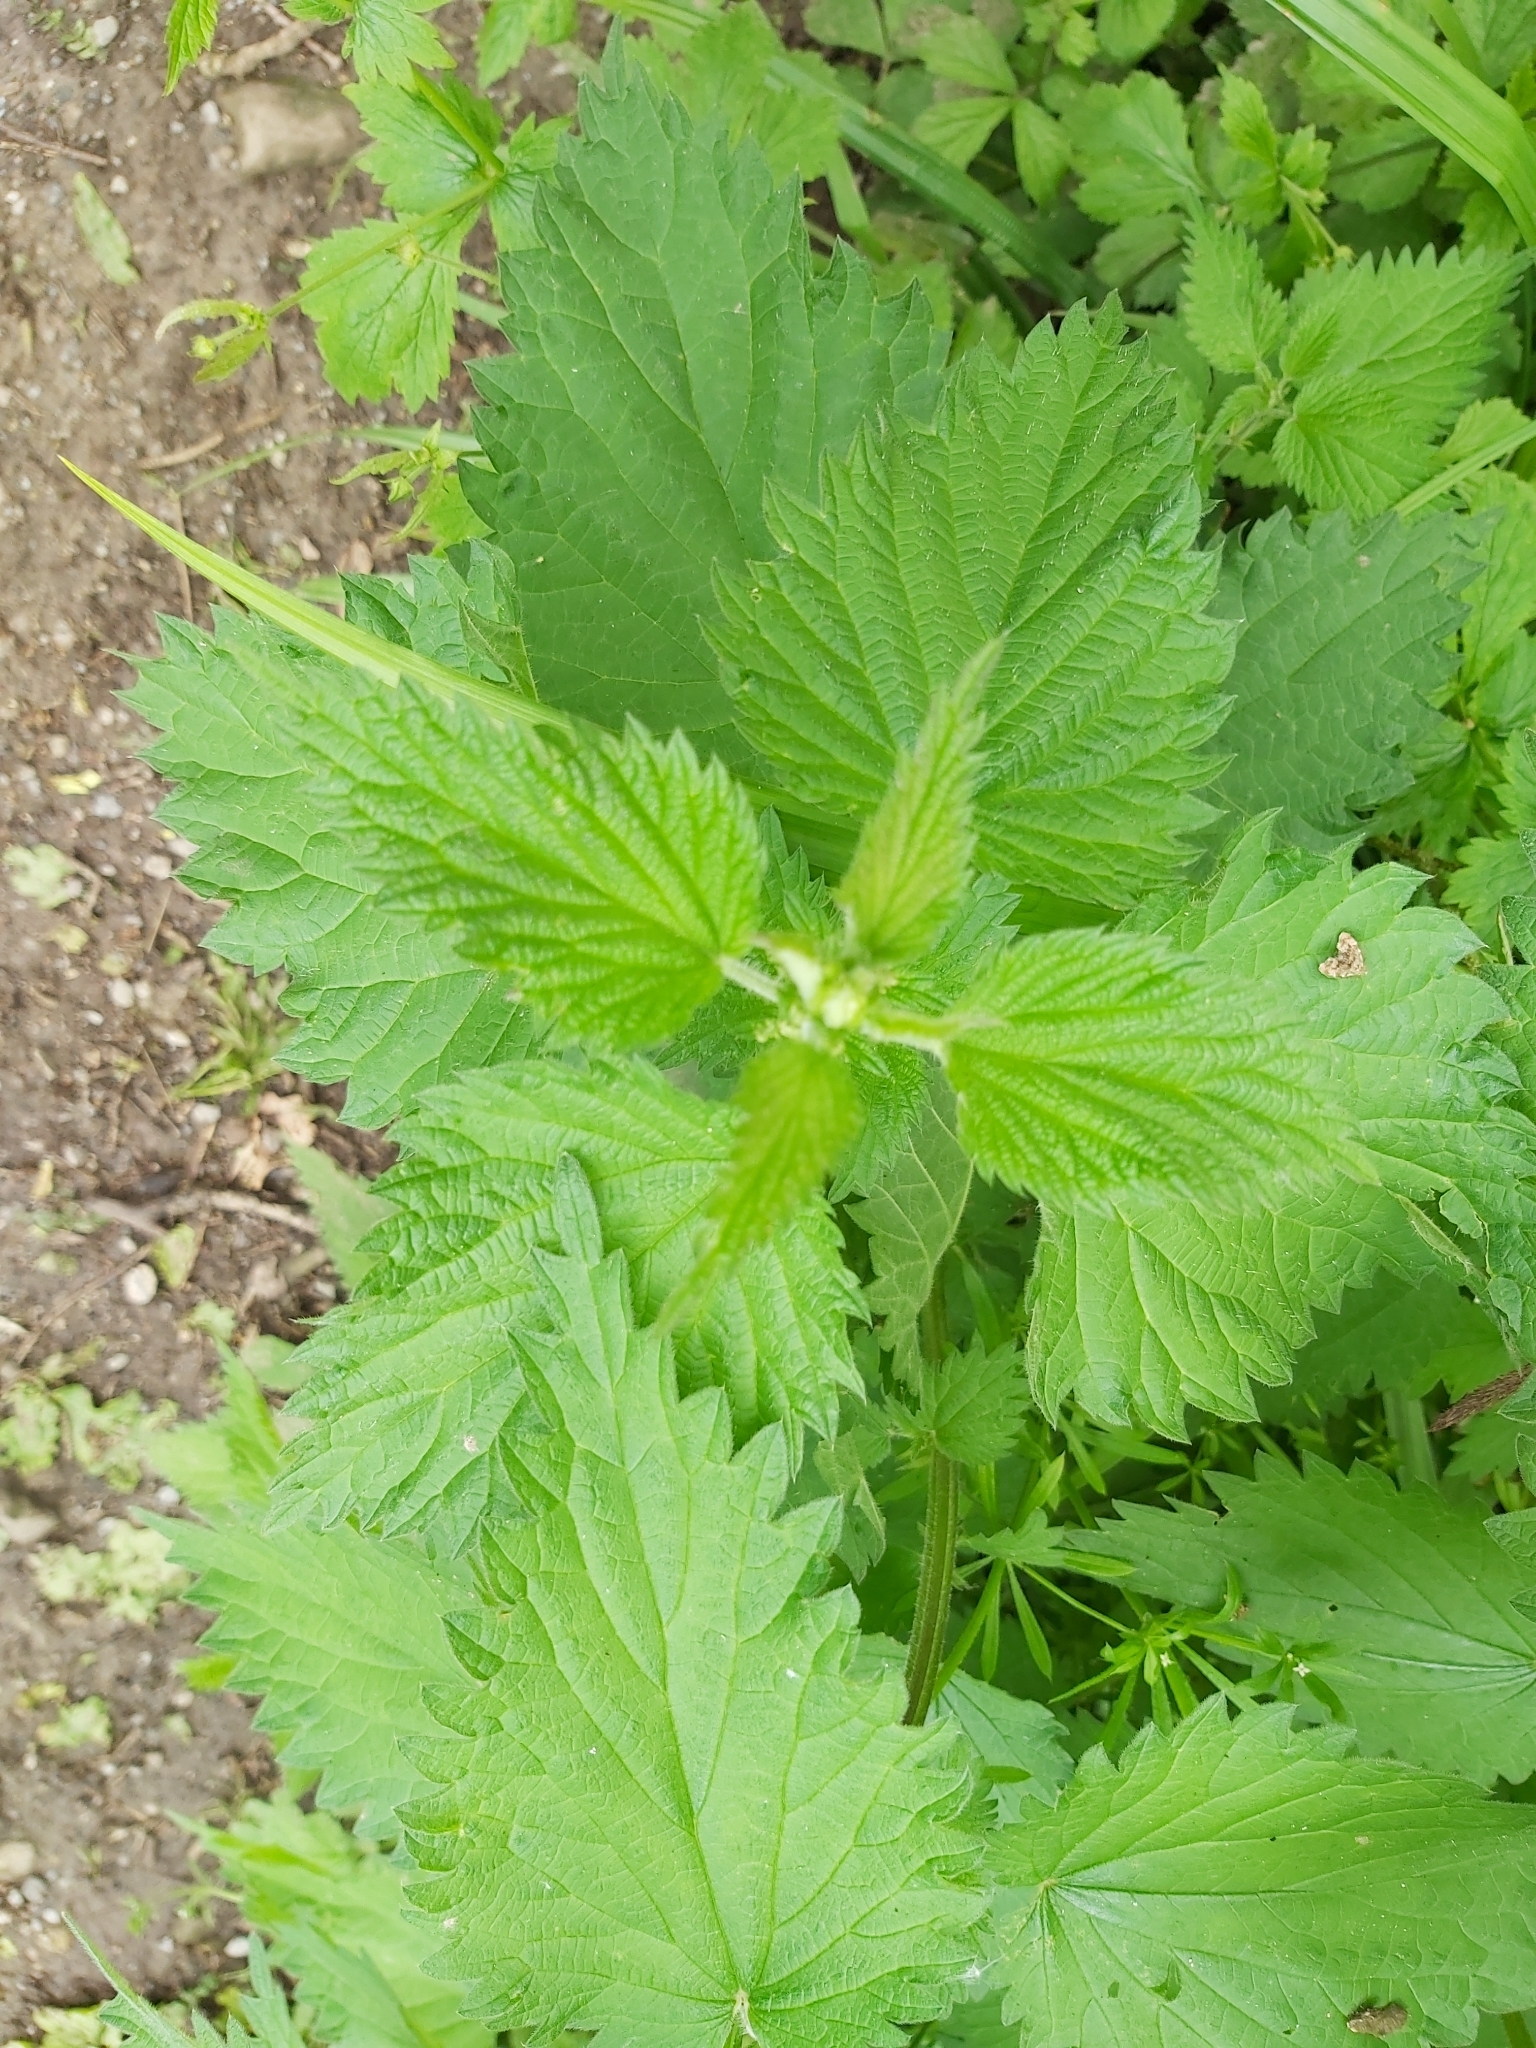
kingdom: Plantae
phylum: Tracheophyta
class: Magnoliopsida
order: Rosales
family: Urticaceae
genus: Urtica
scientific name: Urtica dioica
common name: Common nettle
